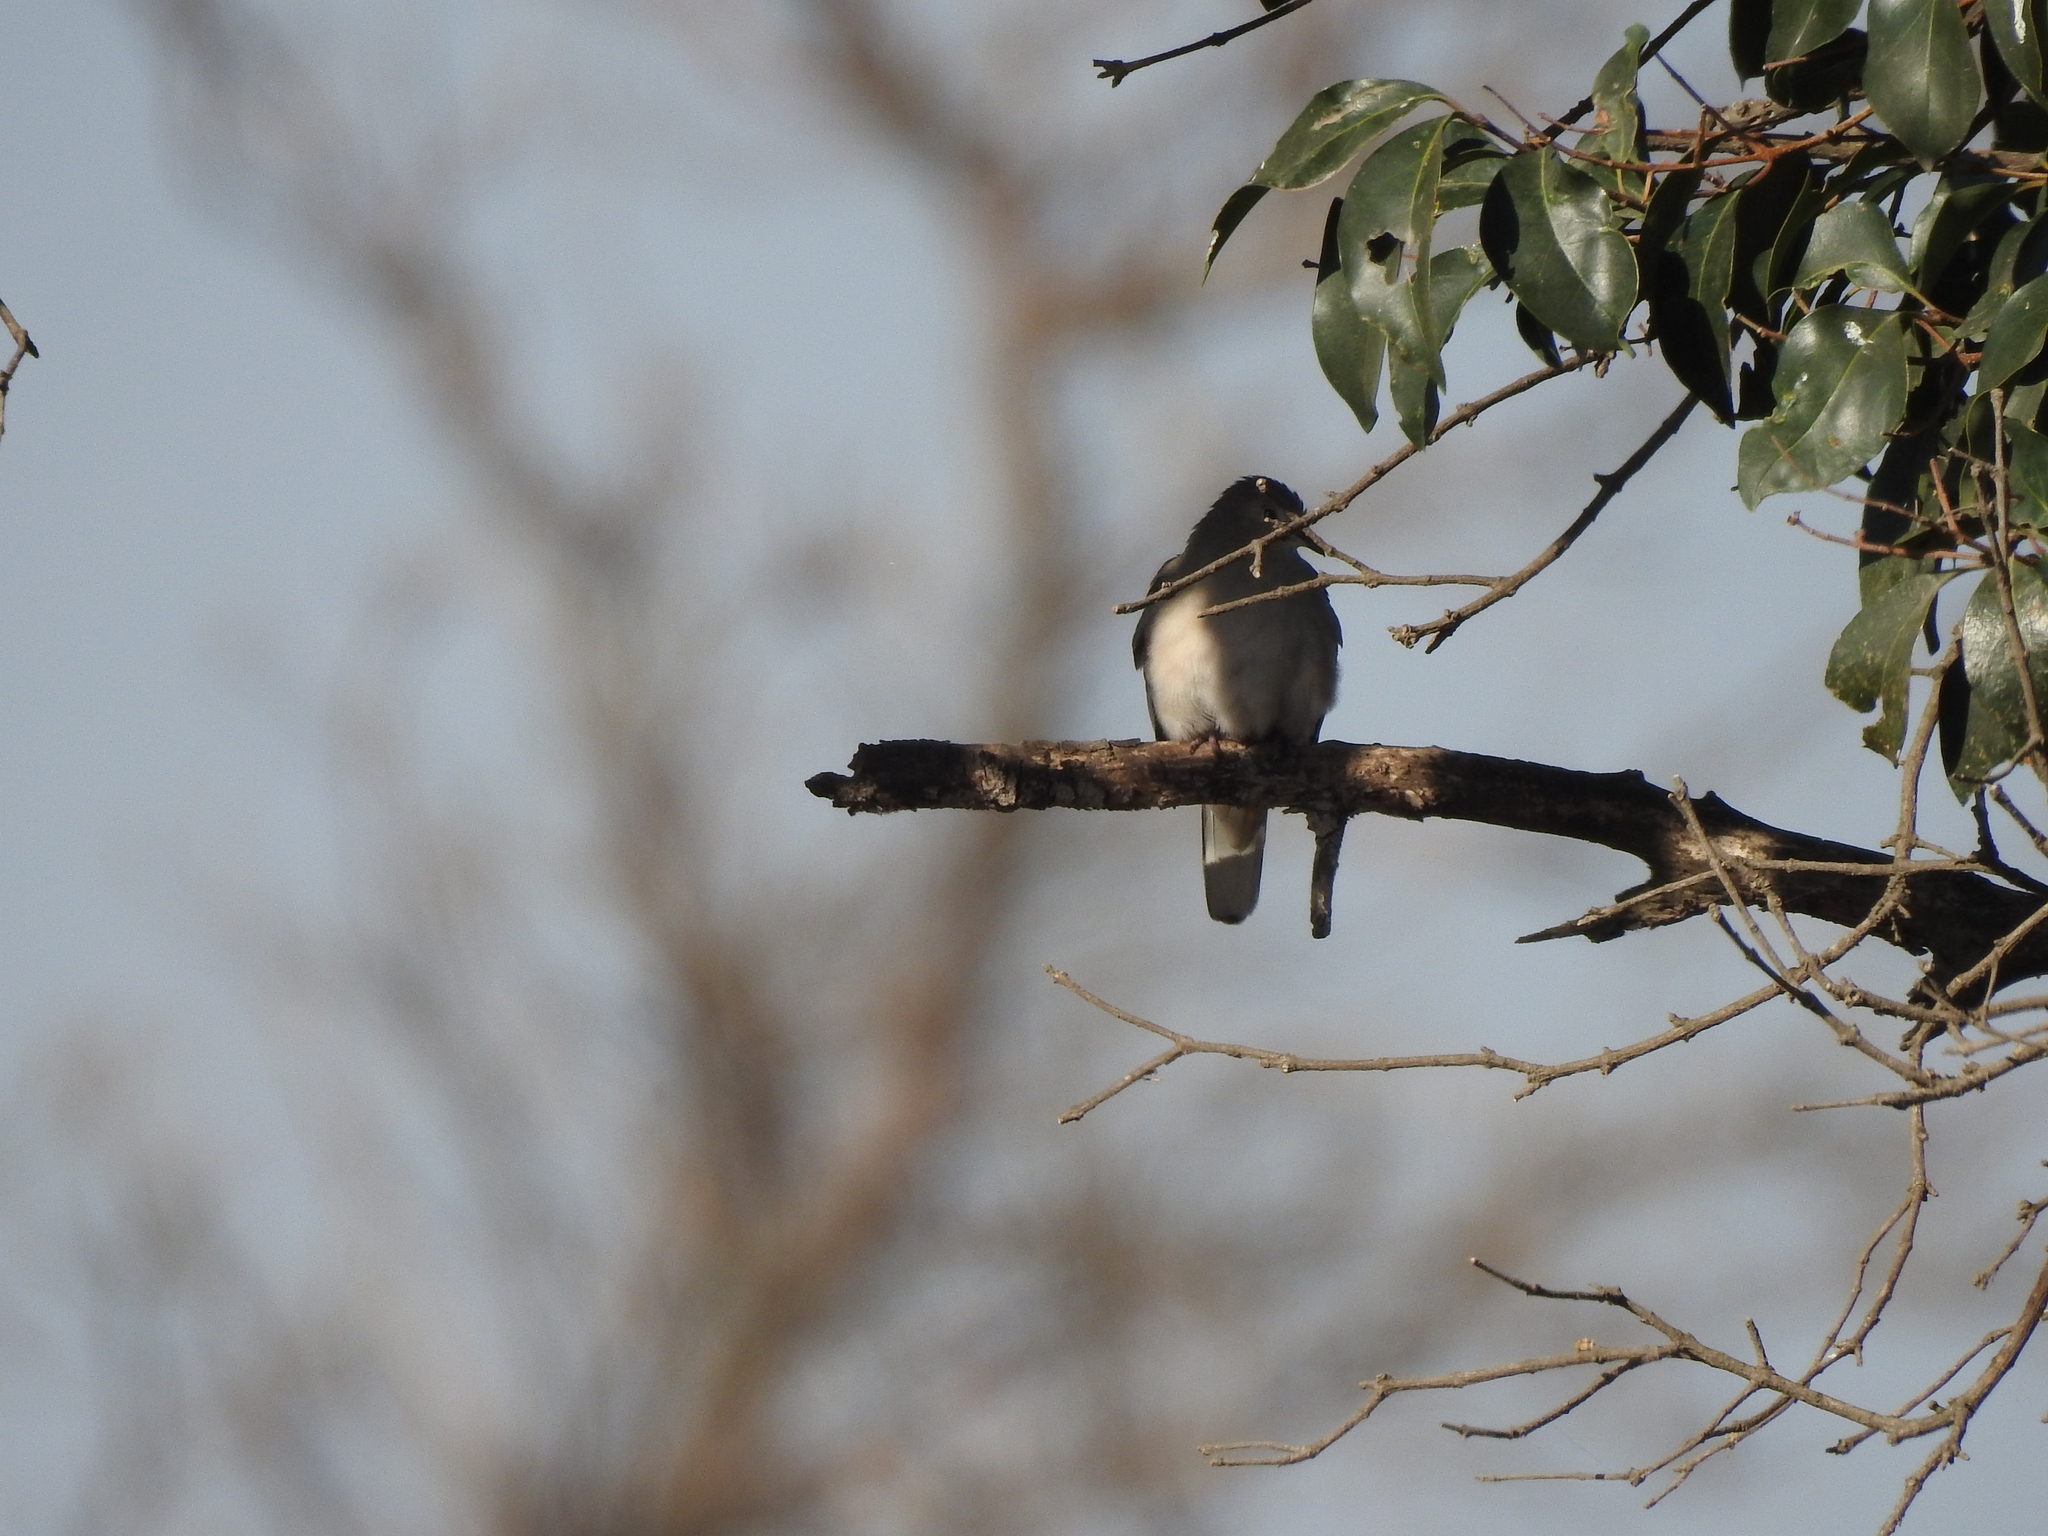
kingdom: Animalia
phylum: Chordata
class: Aves
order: Columbiformes
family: Columbidae
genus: Columbina
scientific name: Columbina picui
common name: Picui ground dove
